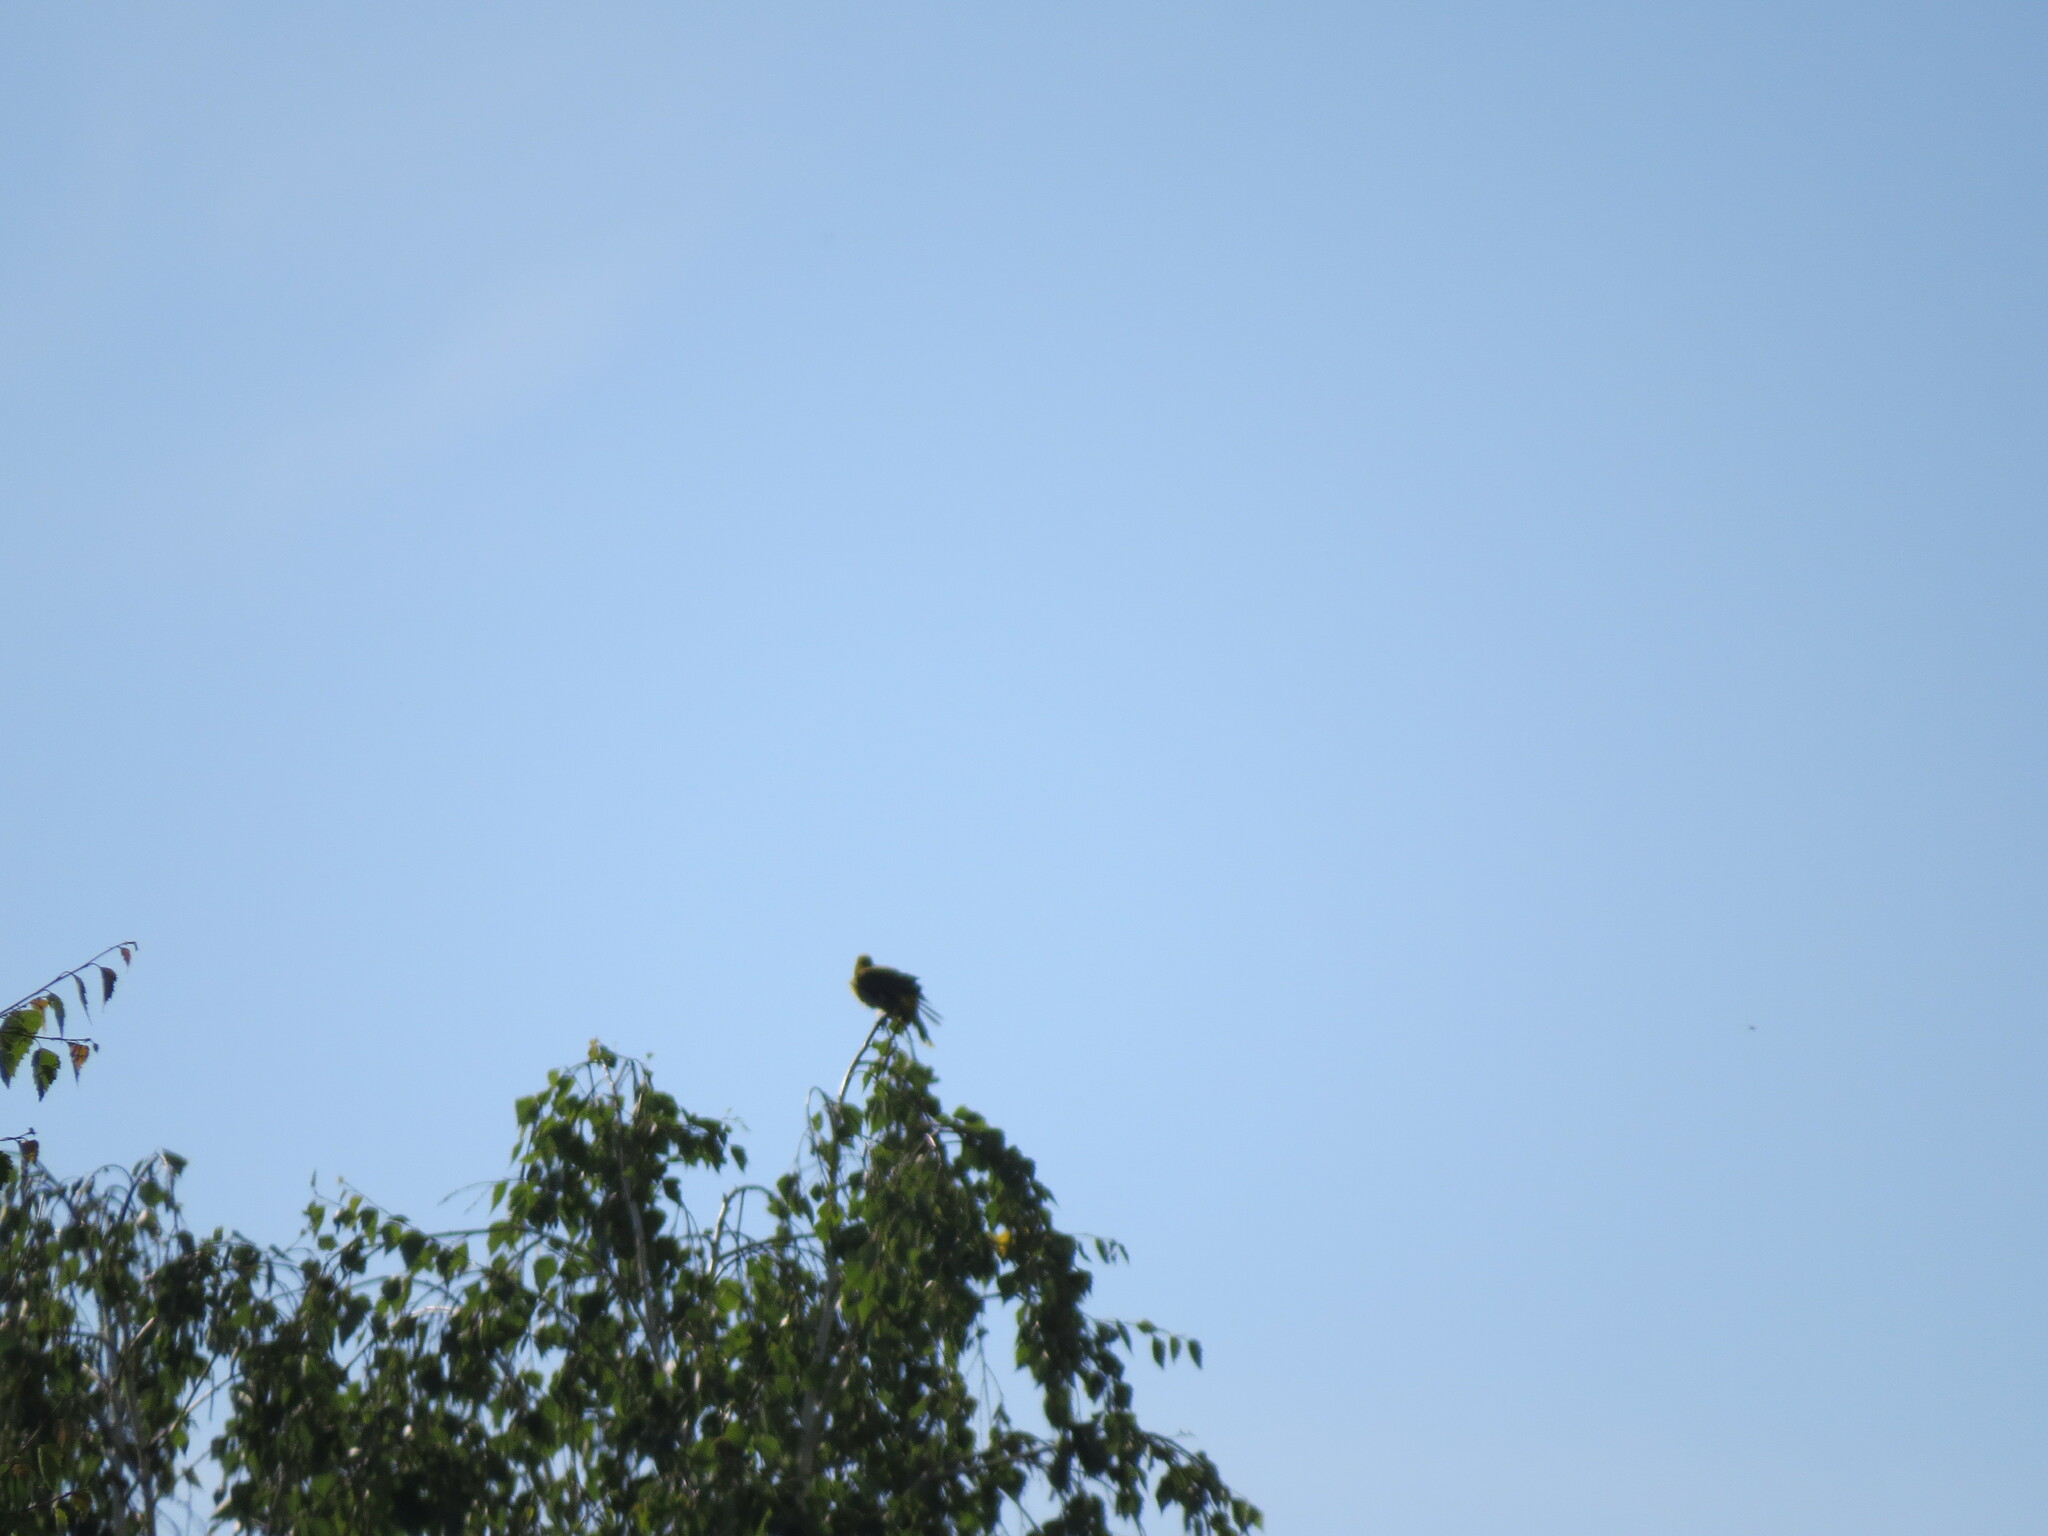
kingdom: Animalia
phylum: Chordata
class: Aves
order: Passeriformes
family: Oriolidae
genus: Oriolus
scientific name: Oriolus oriolus
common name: Eurasian golden oriole
